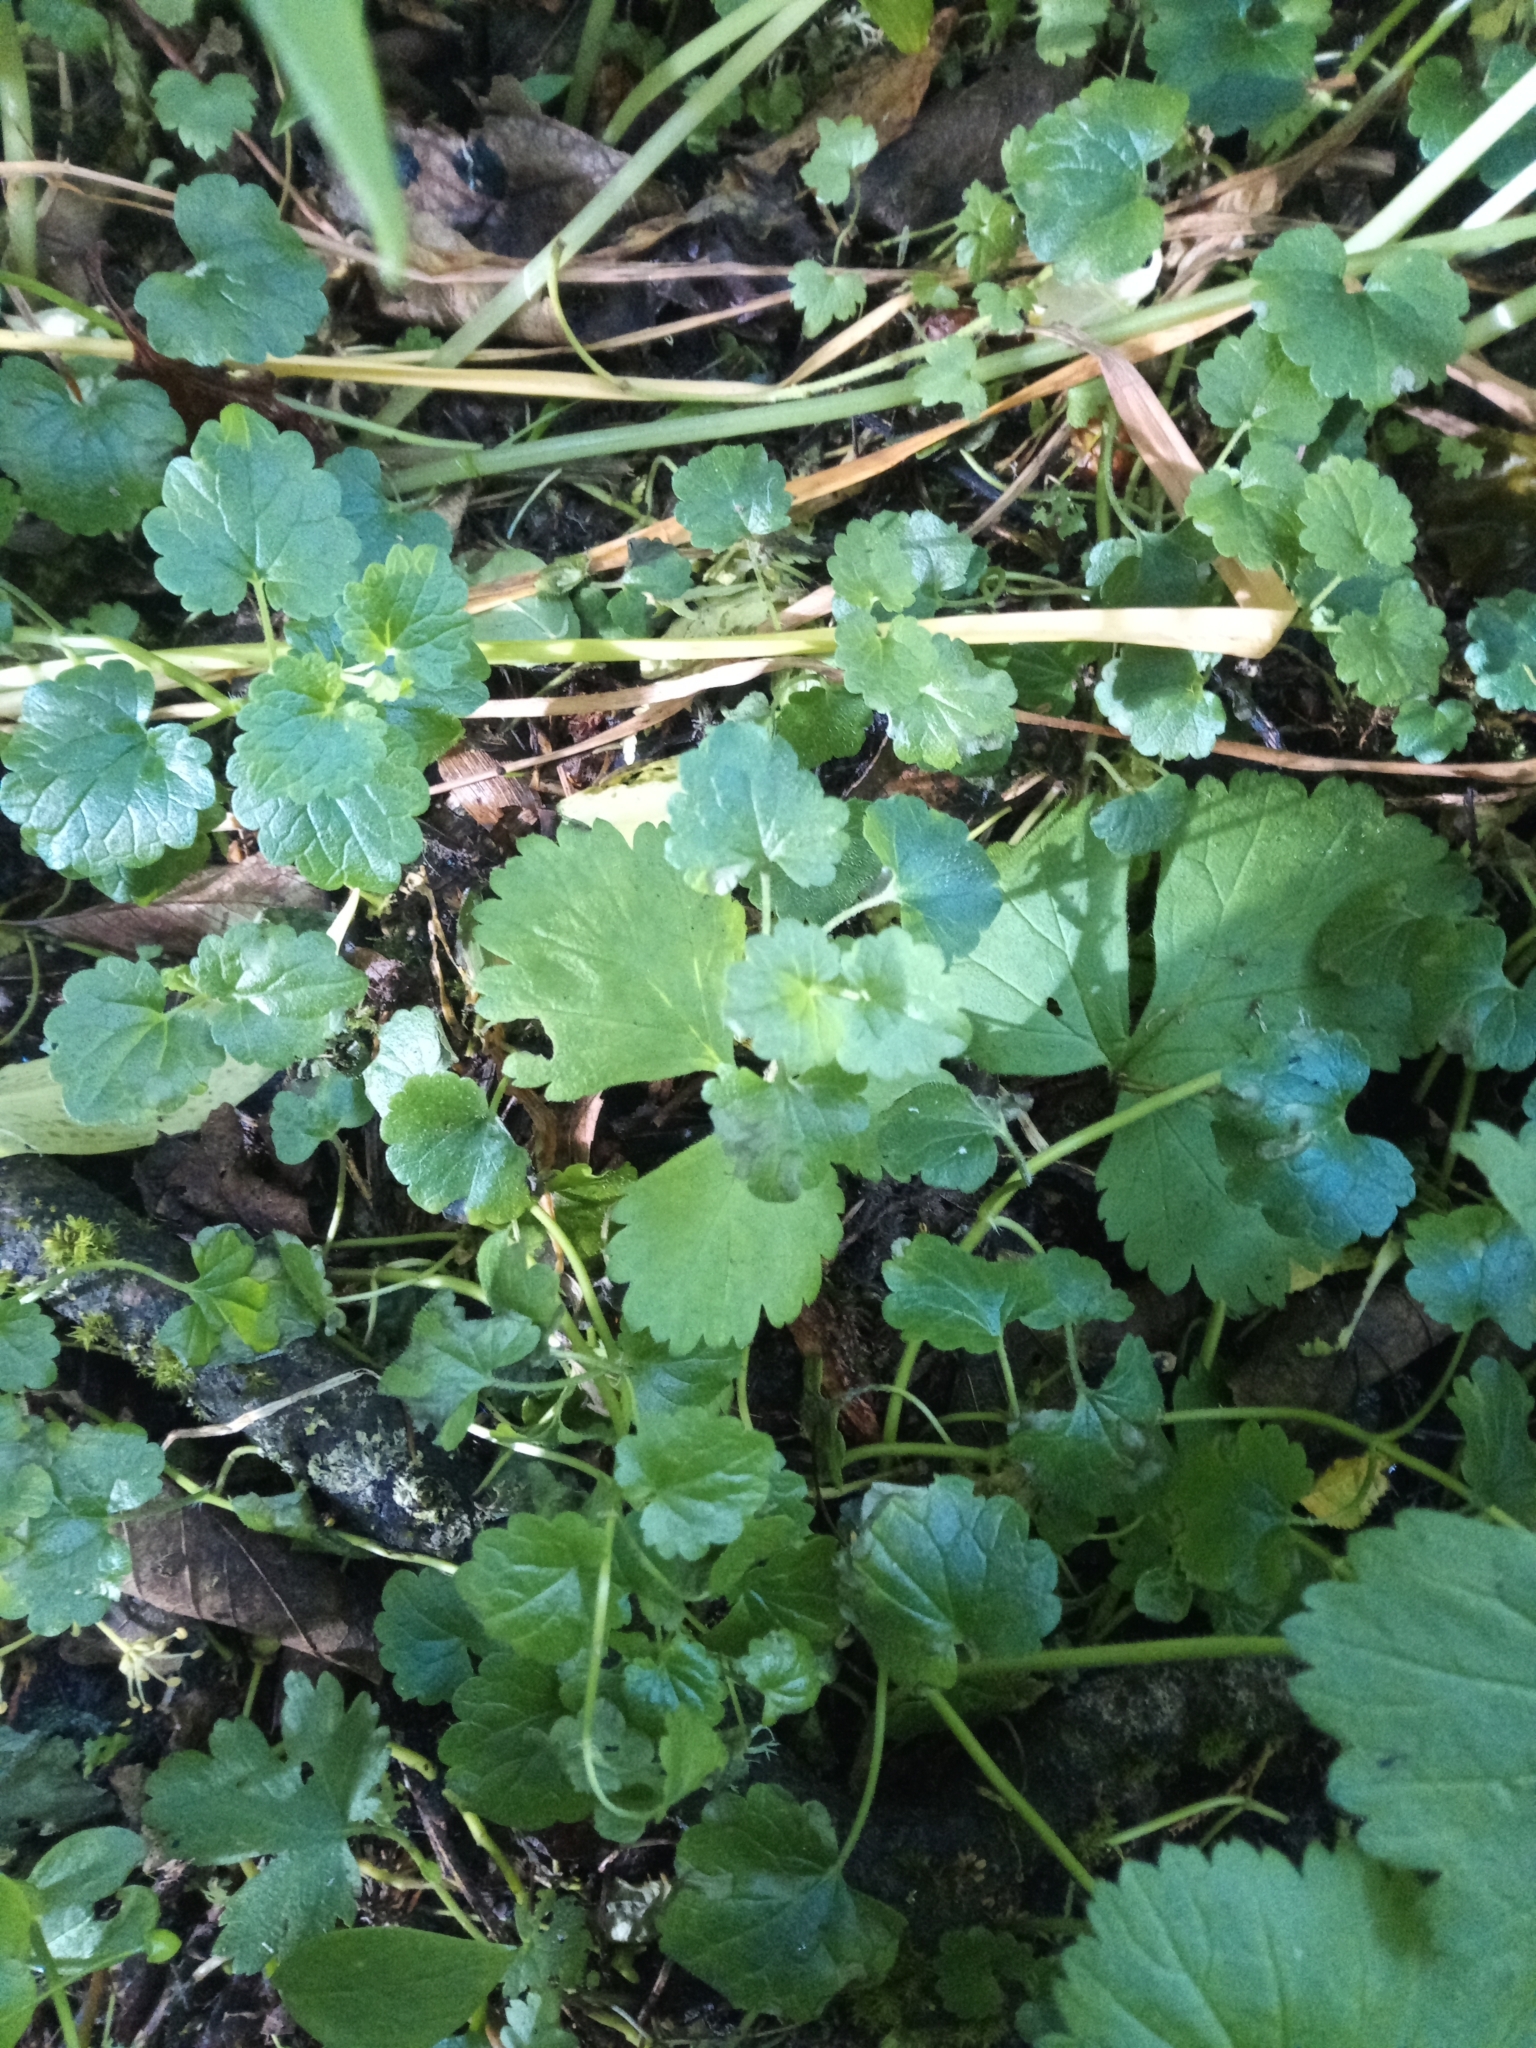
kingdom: Plantae
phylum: Tracheophyta
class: Magnoliopsida
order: Lamiales
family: Lamiaceae
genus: Glechoma
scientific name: Glechoma hederacea
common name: Ground ivy
